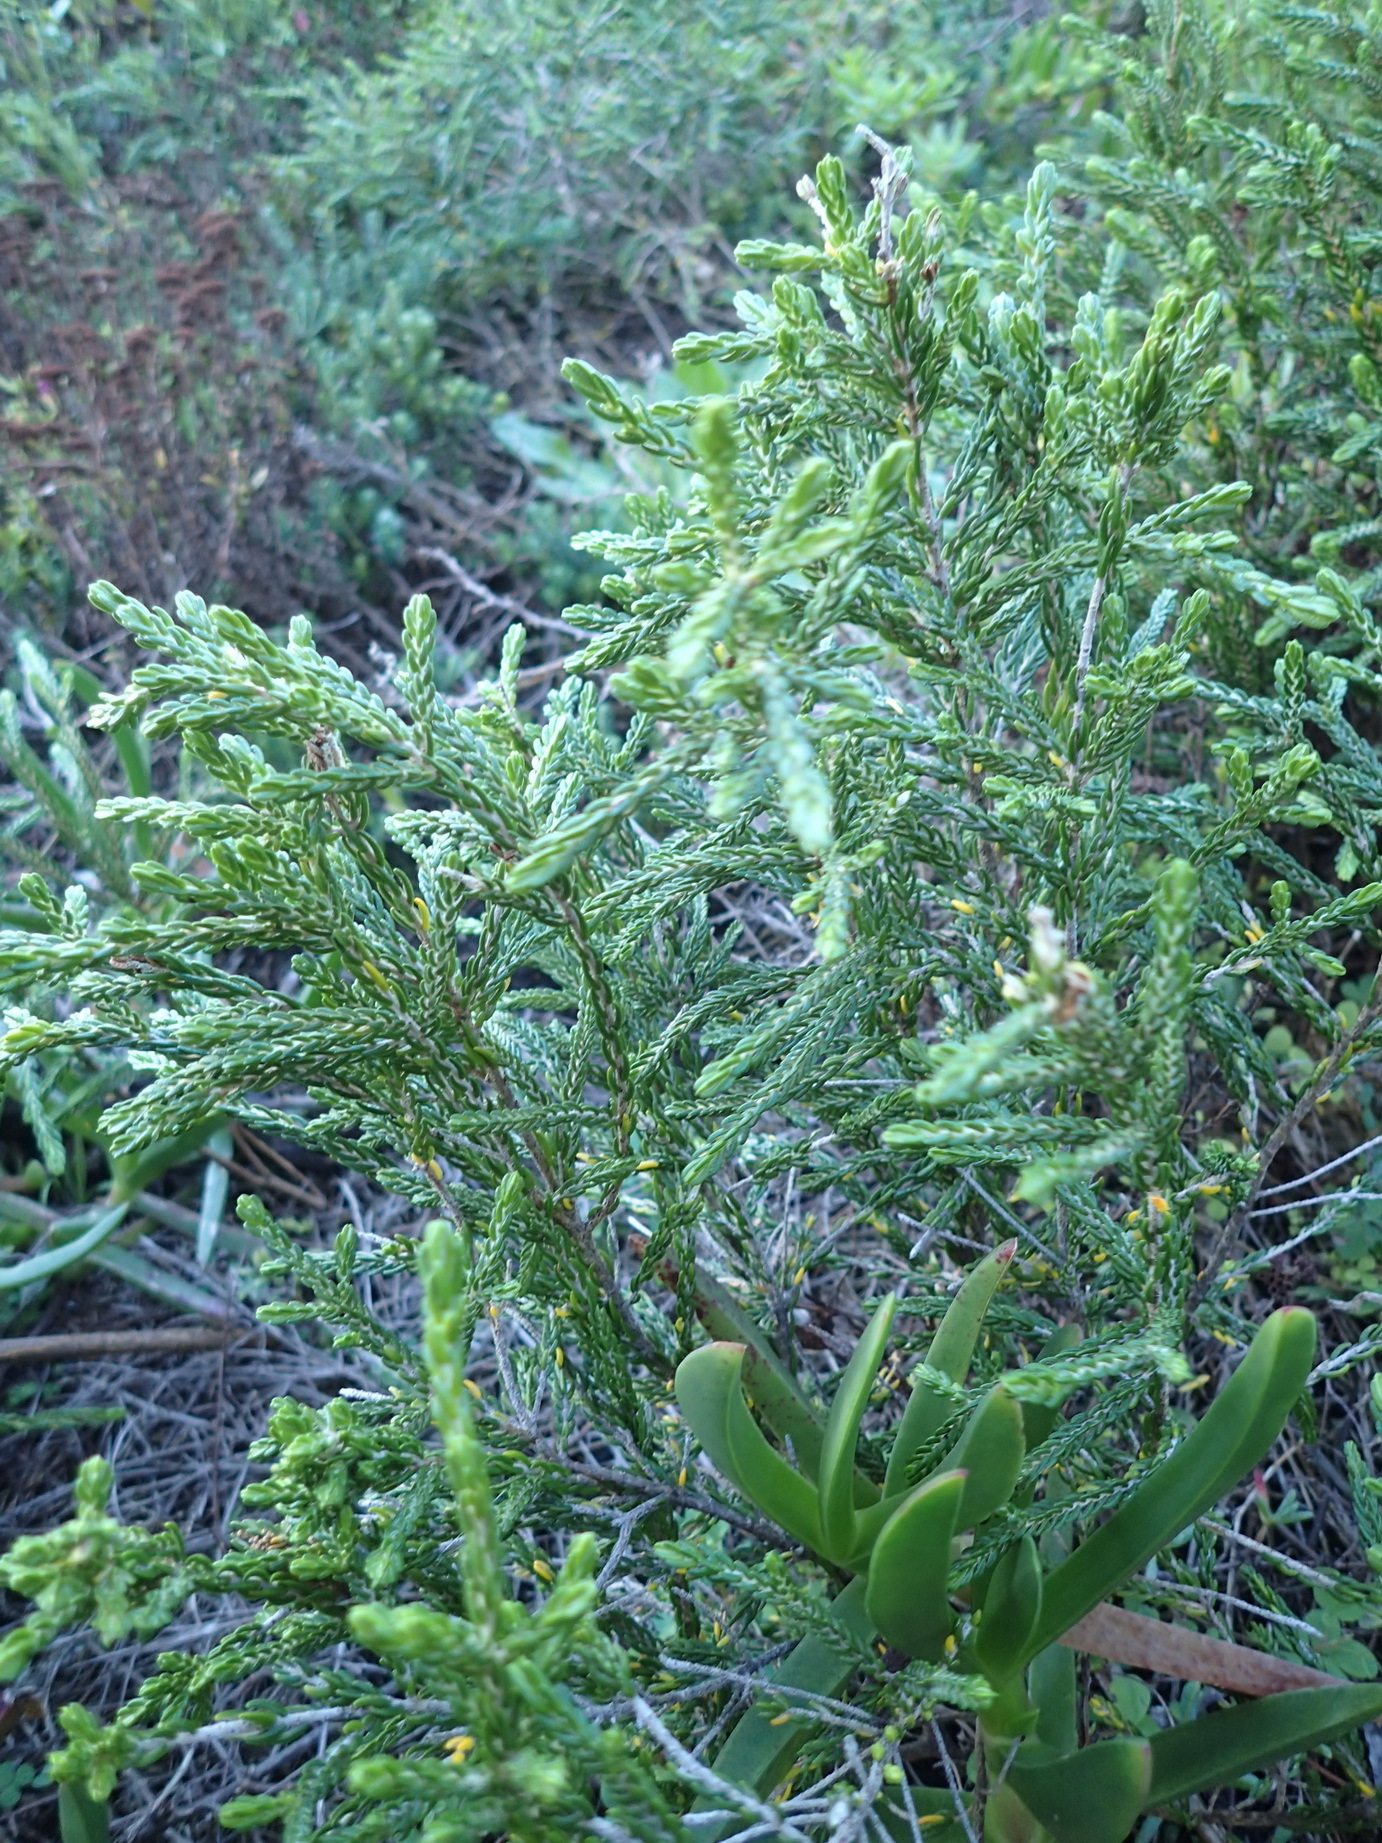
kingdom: Plantae
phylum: Tracheophyta
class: Magnoliopsida
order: Malvales
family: Thymelaeaceae
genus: Passerina
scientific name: Passerina corymbosa
